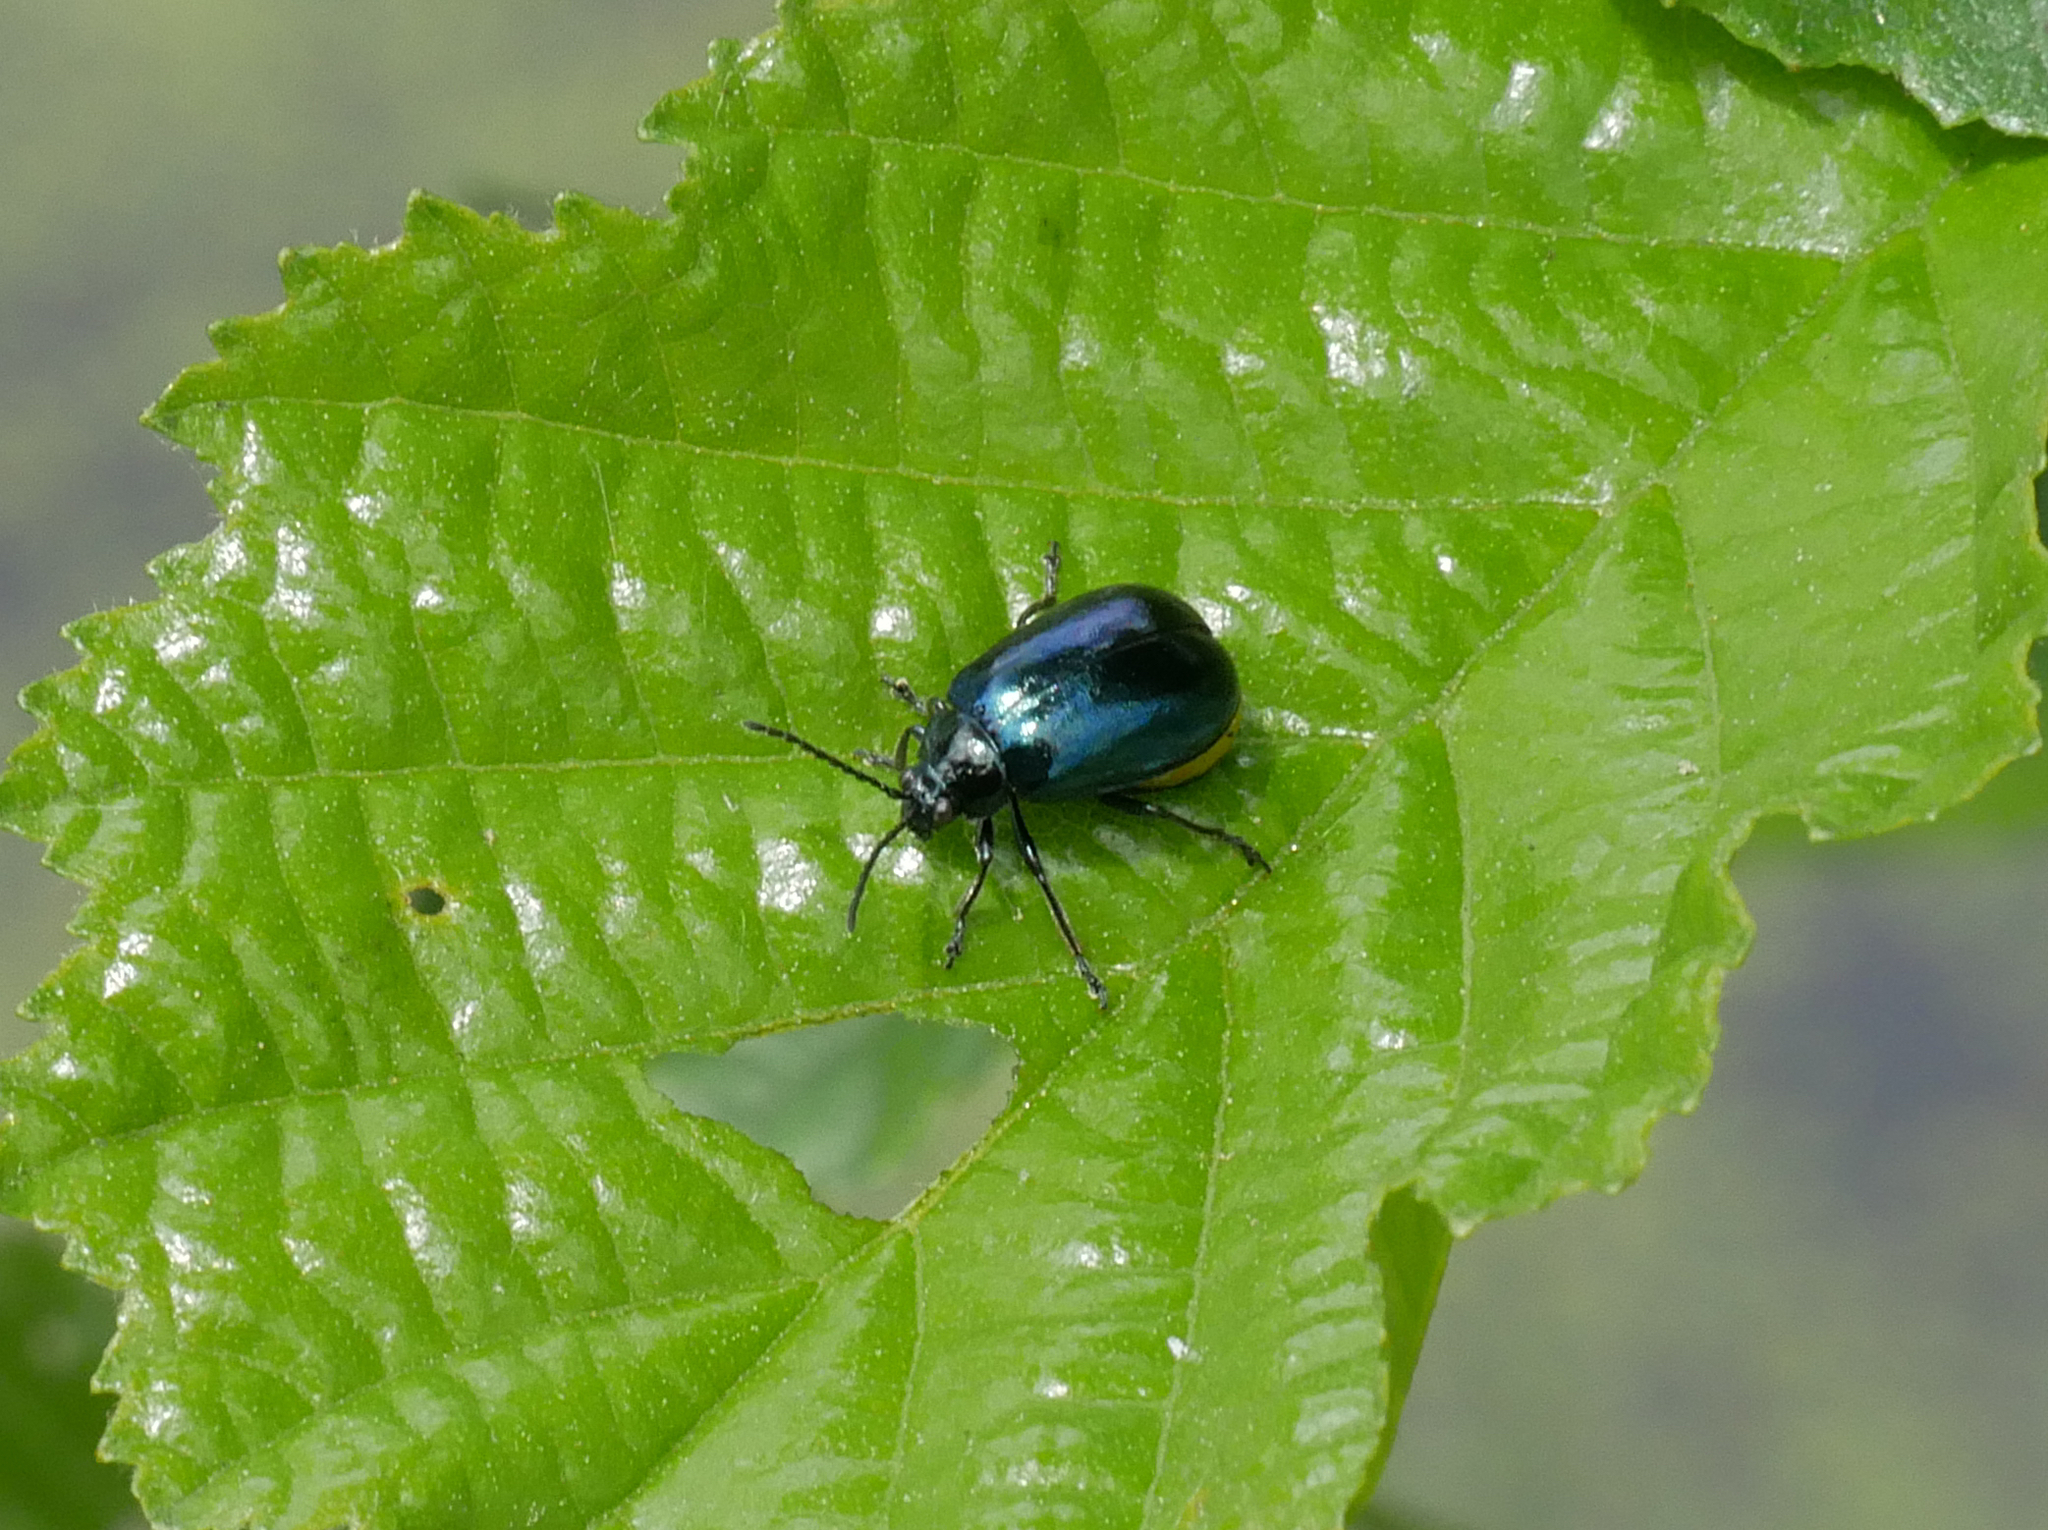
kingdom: Animalia
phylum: Arthropoda
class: Insecta
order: Coleoptera
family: Chrysomelidae
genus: Agelastica
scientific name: Agelastica alni
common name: Alder leaf beetle
